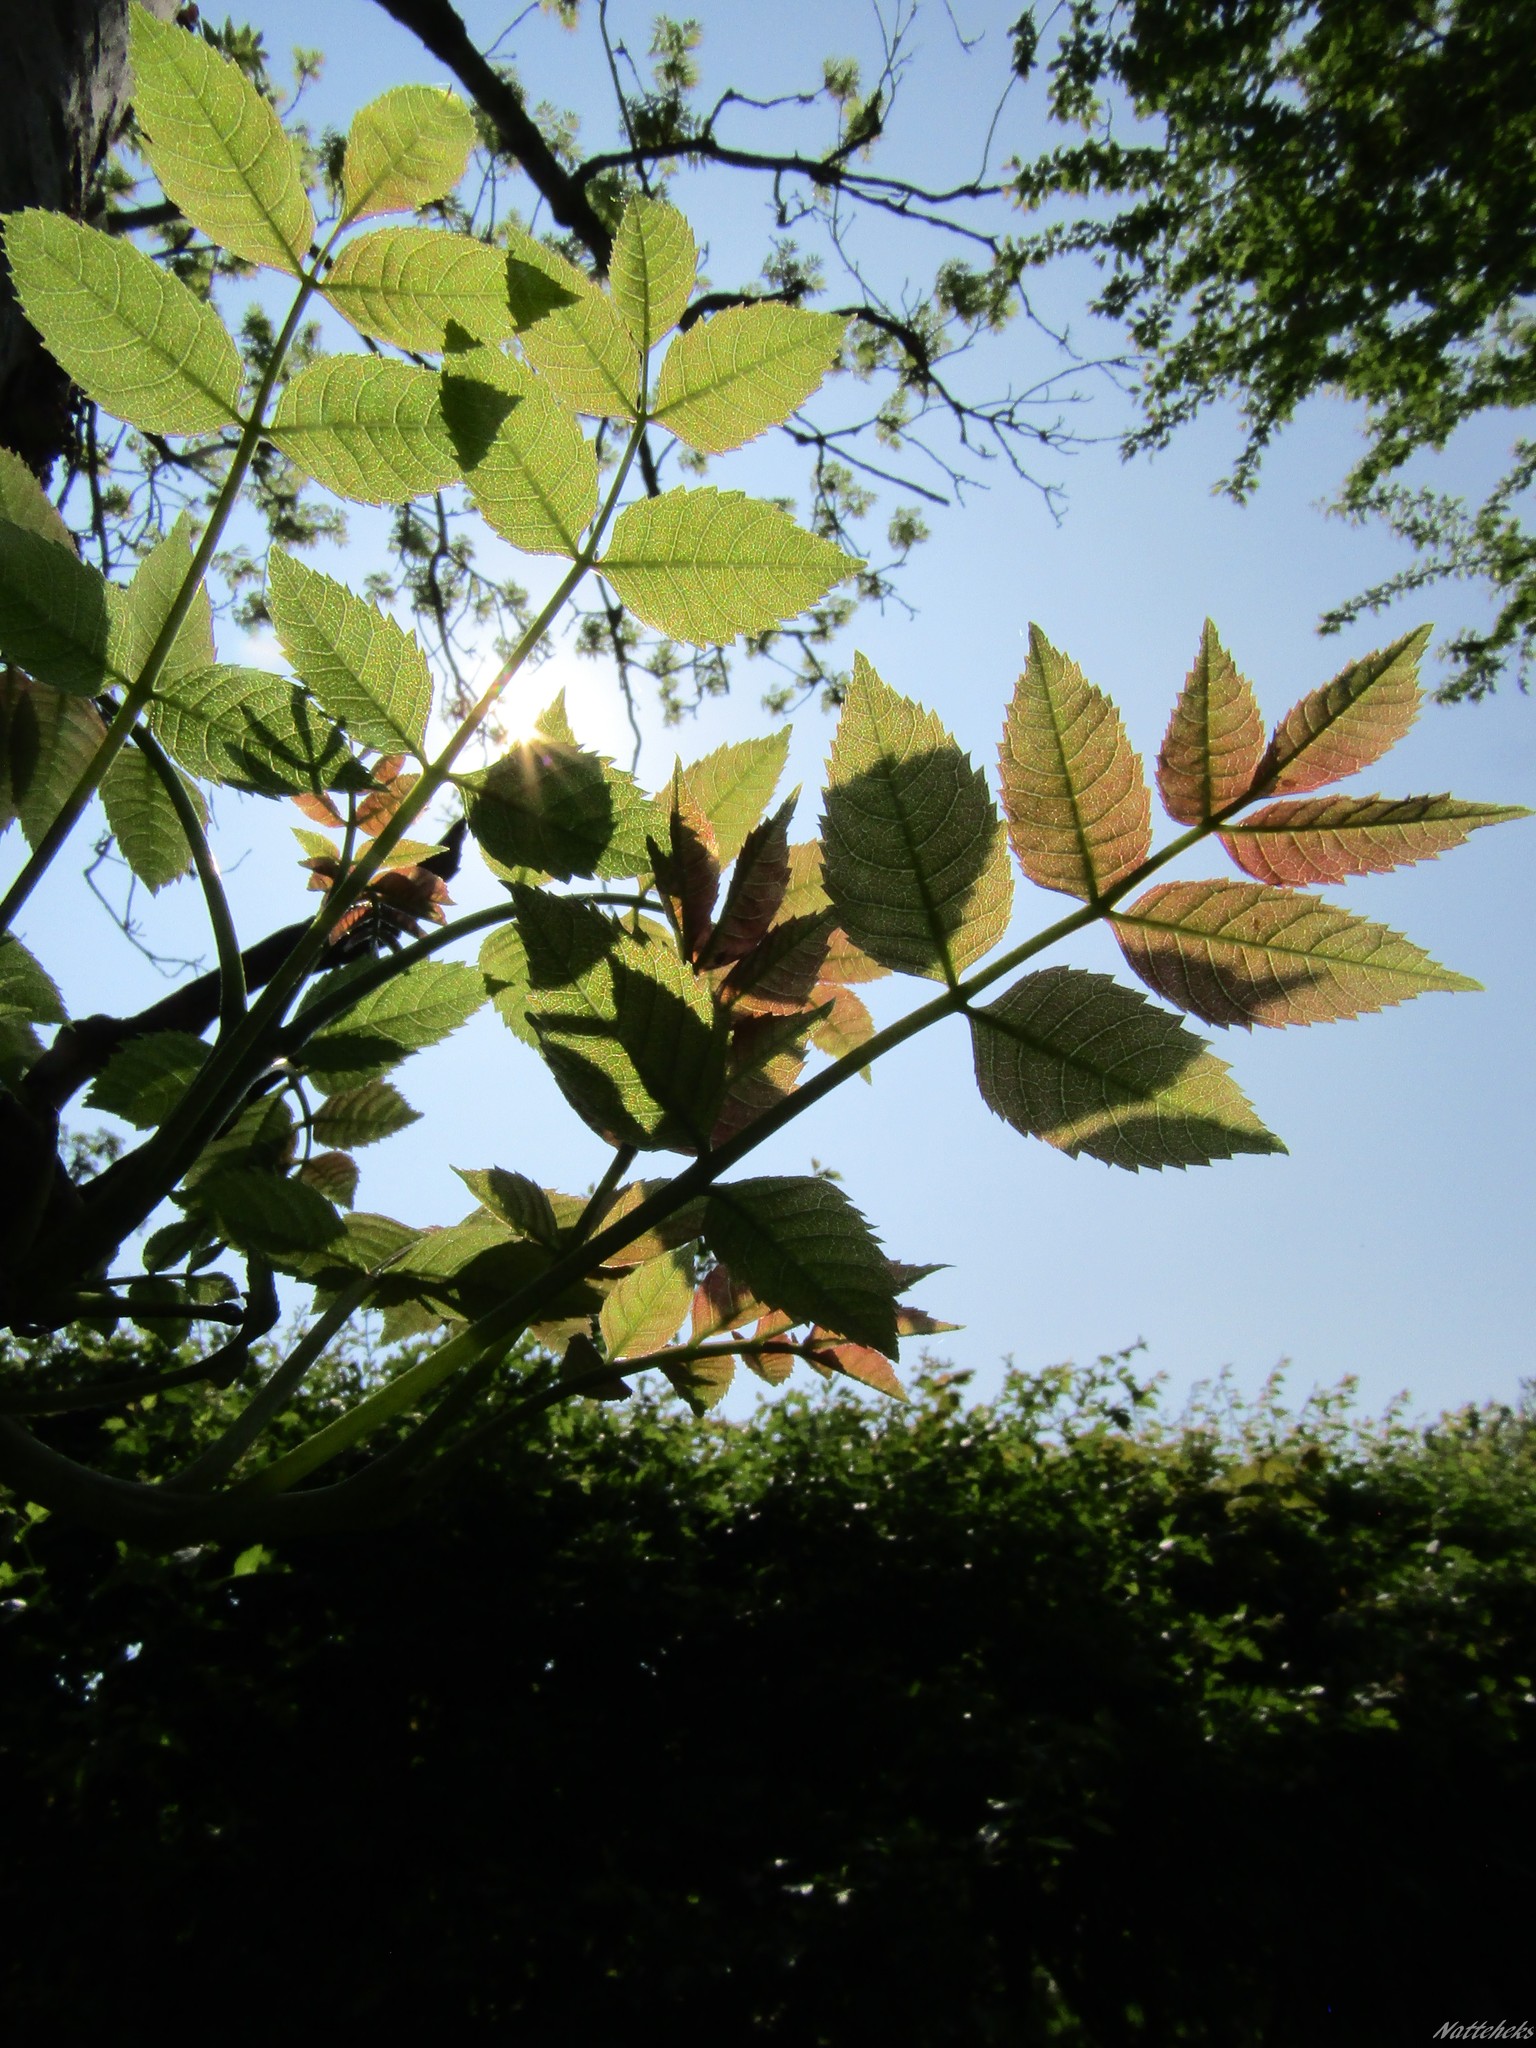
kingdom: Plantae
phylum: Tracheophyta
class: Magnoliopsida
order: Lamiales
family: Oleaceae
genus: Fraxinus
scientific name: Fraxinus excelsior
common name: European ash
